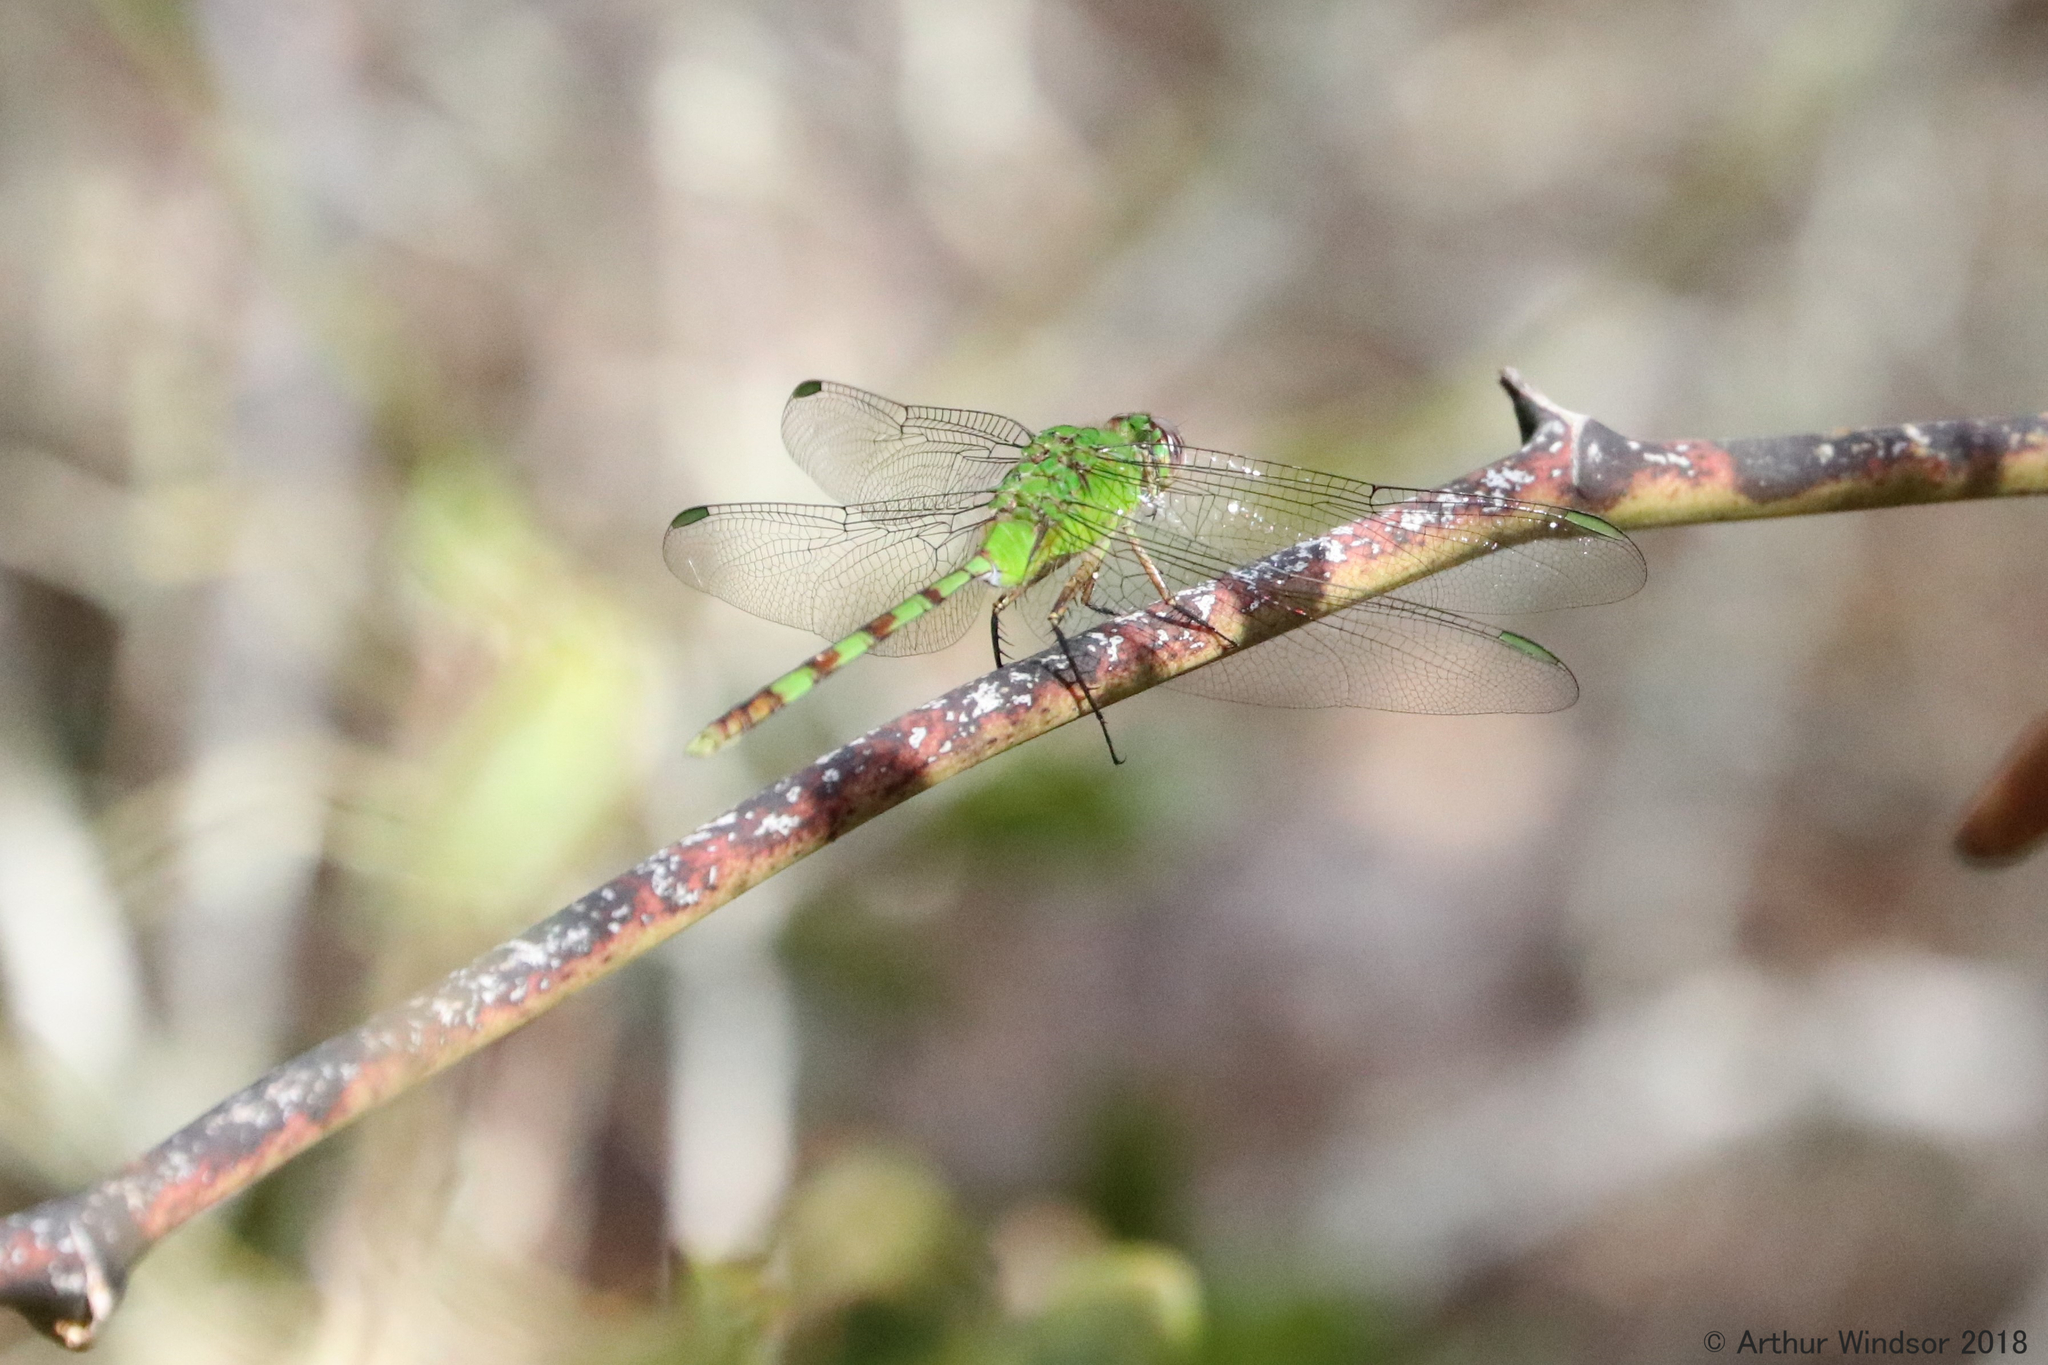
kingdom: Animalia
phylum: Arthropoda
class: Insecta
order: Odonata
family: Libellulidae
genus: Erythemis
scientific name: Erythemis vesiculosa
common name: Great pondhawk
